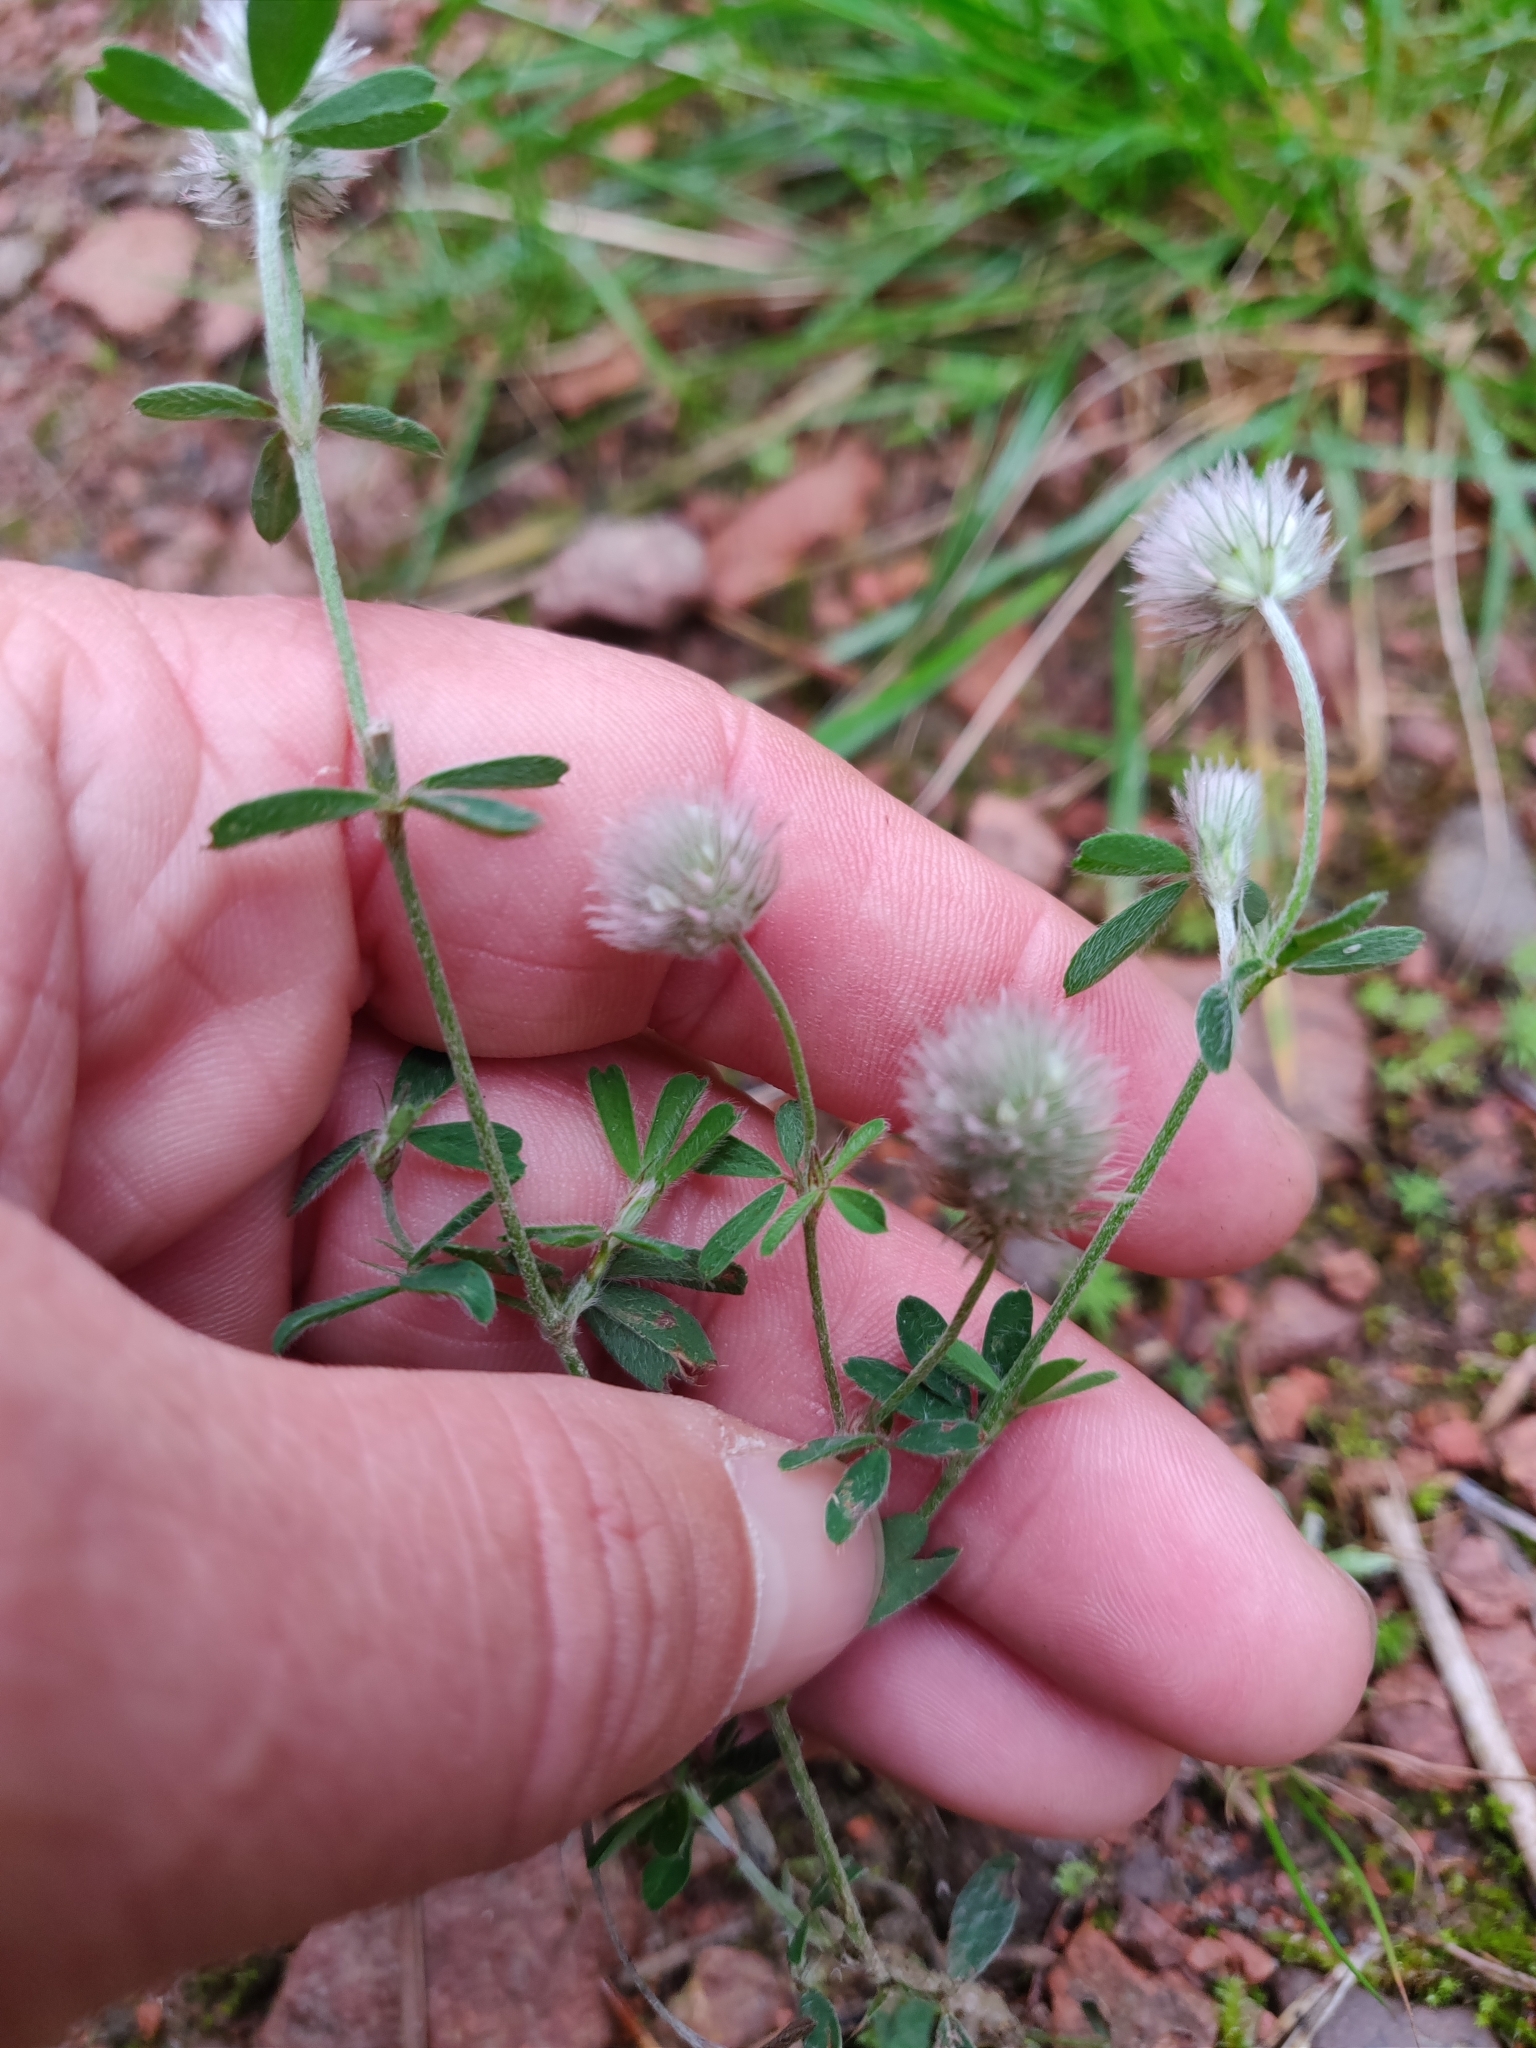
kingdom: Plantae
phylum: Tracheophyta
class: Magnoliopsida
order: Fabales
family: Fabaceae
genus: Trifolium
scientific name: Trifolium arvense
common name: Hare's-foot clover
